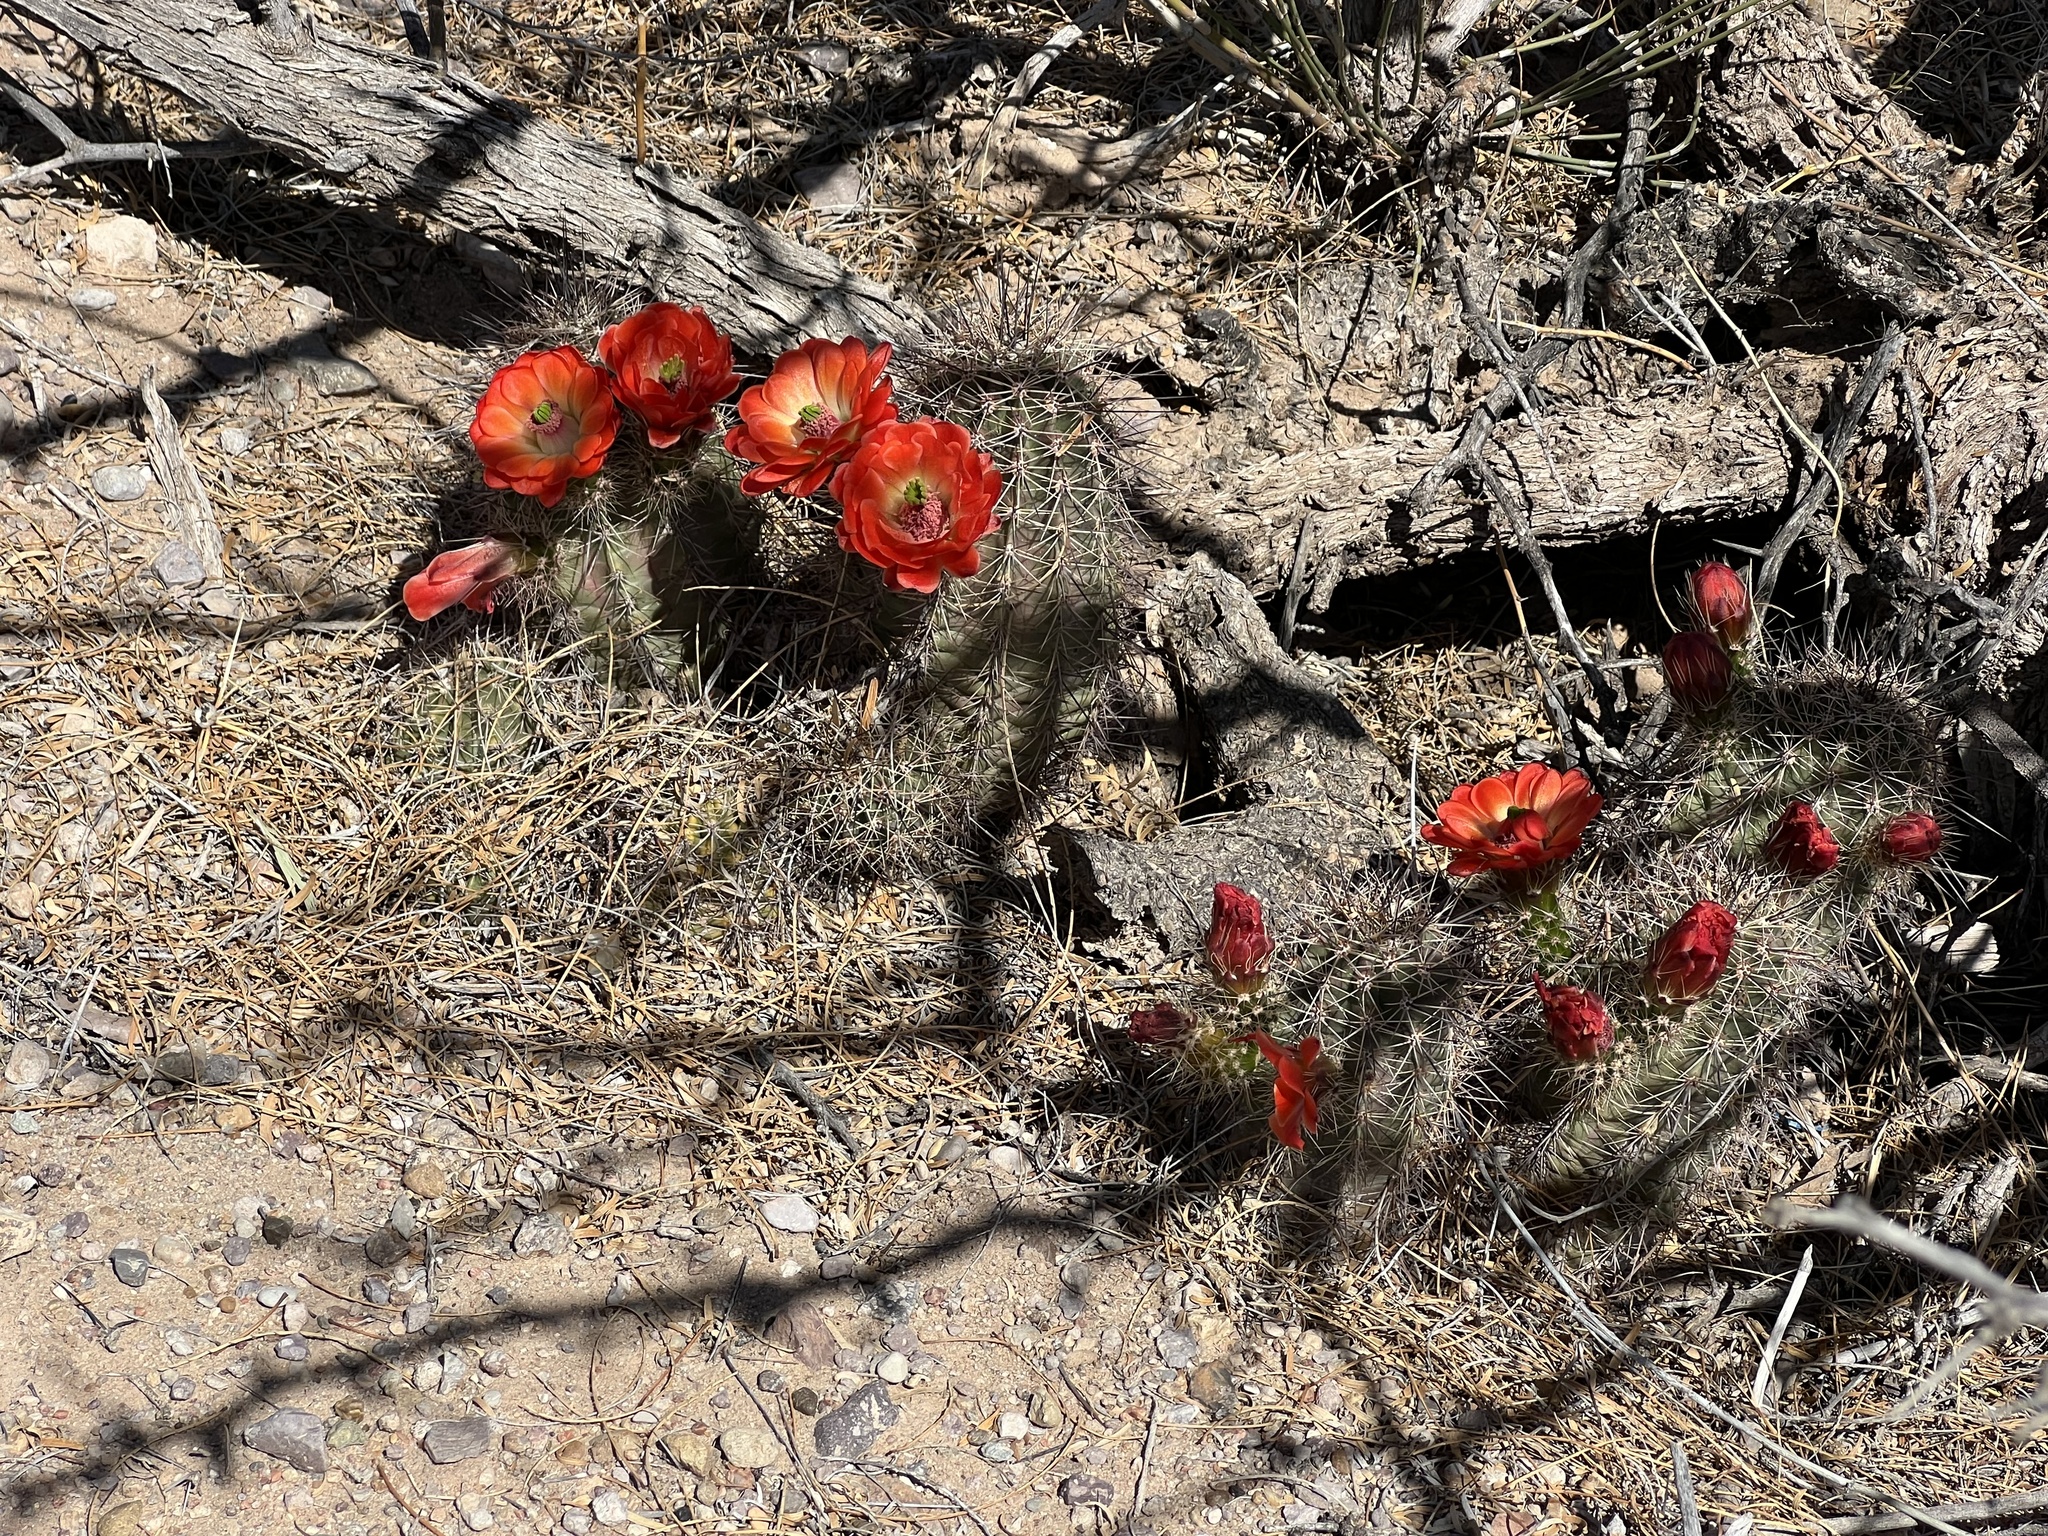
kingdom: Plantae
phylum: Tracheophyta
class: Magnoliopsida
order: Caryophyllales
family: Cactaceae
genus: Echinocereus
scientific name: Echinocereus coccineus
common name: Scarlet hedgehog cactus
